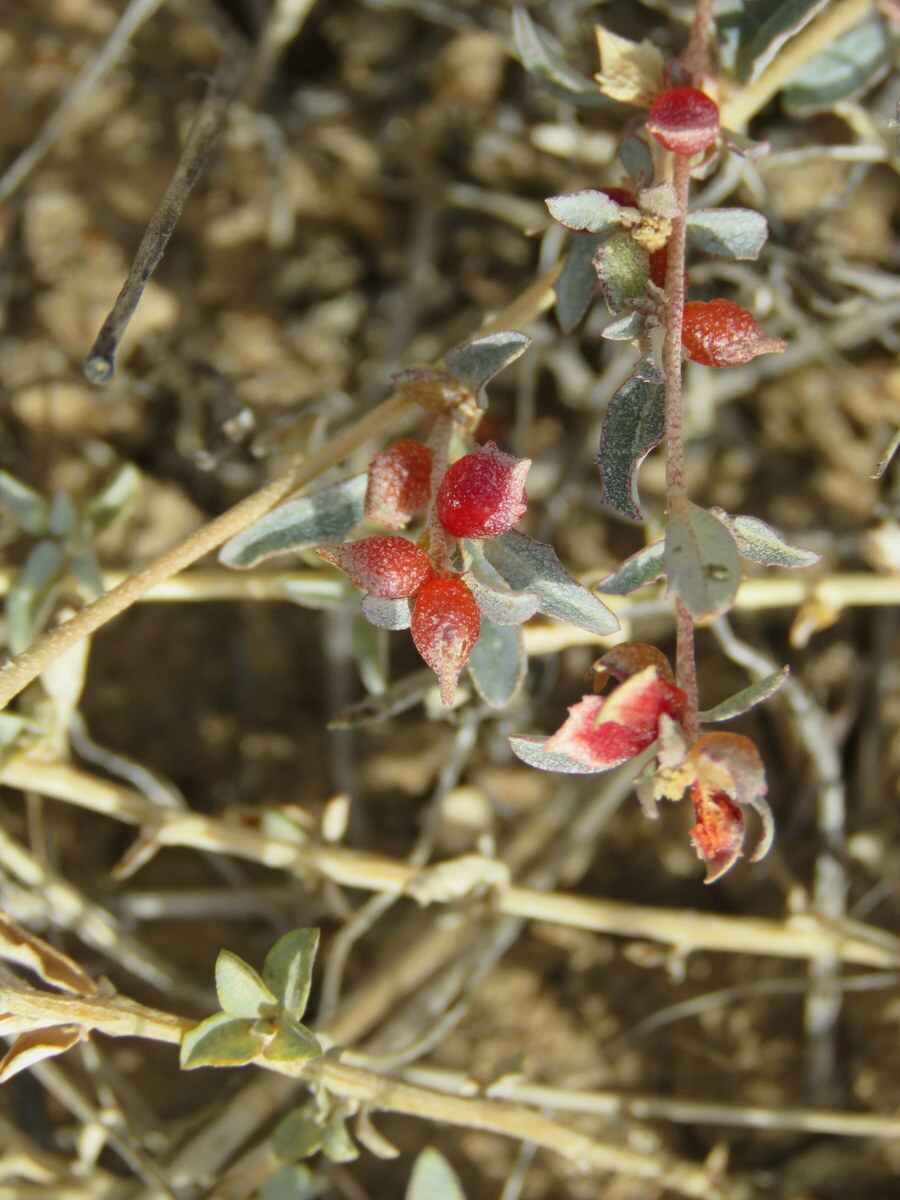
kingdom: Plantae
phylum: Tracheophyta
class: Magnoliopsida
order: Caryophyllales
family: Amaranthaceae
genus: Atriplex
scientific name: Atriplex semibaccata
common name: Australian saltbush
